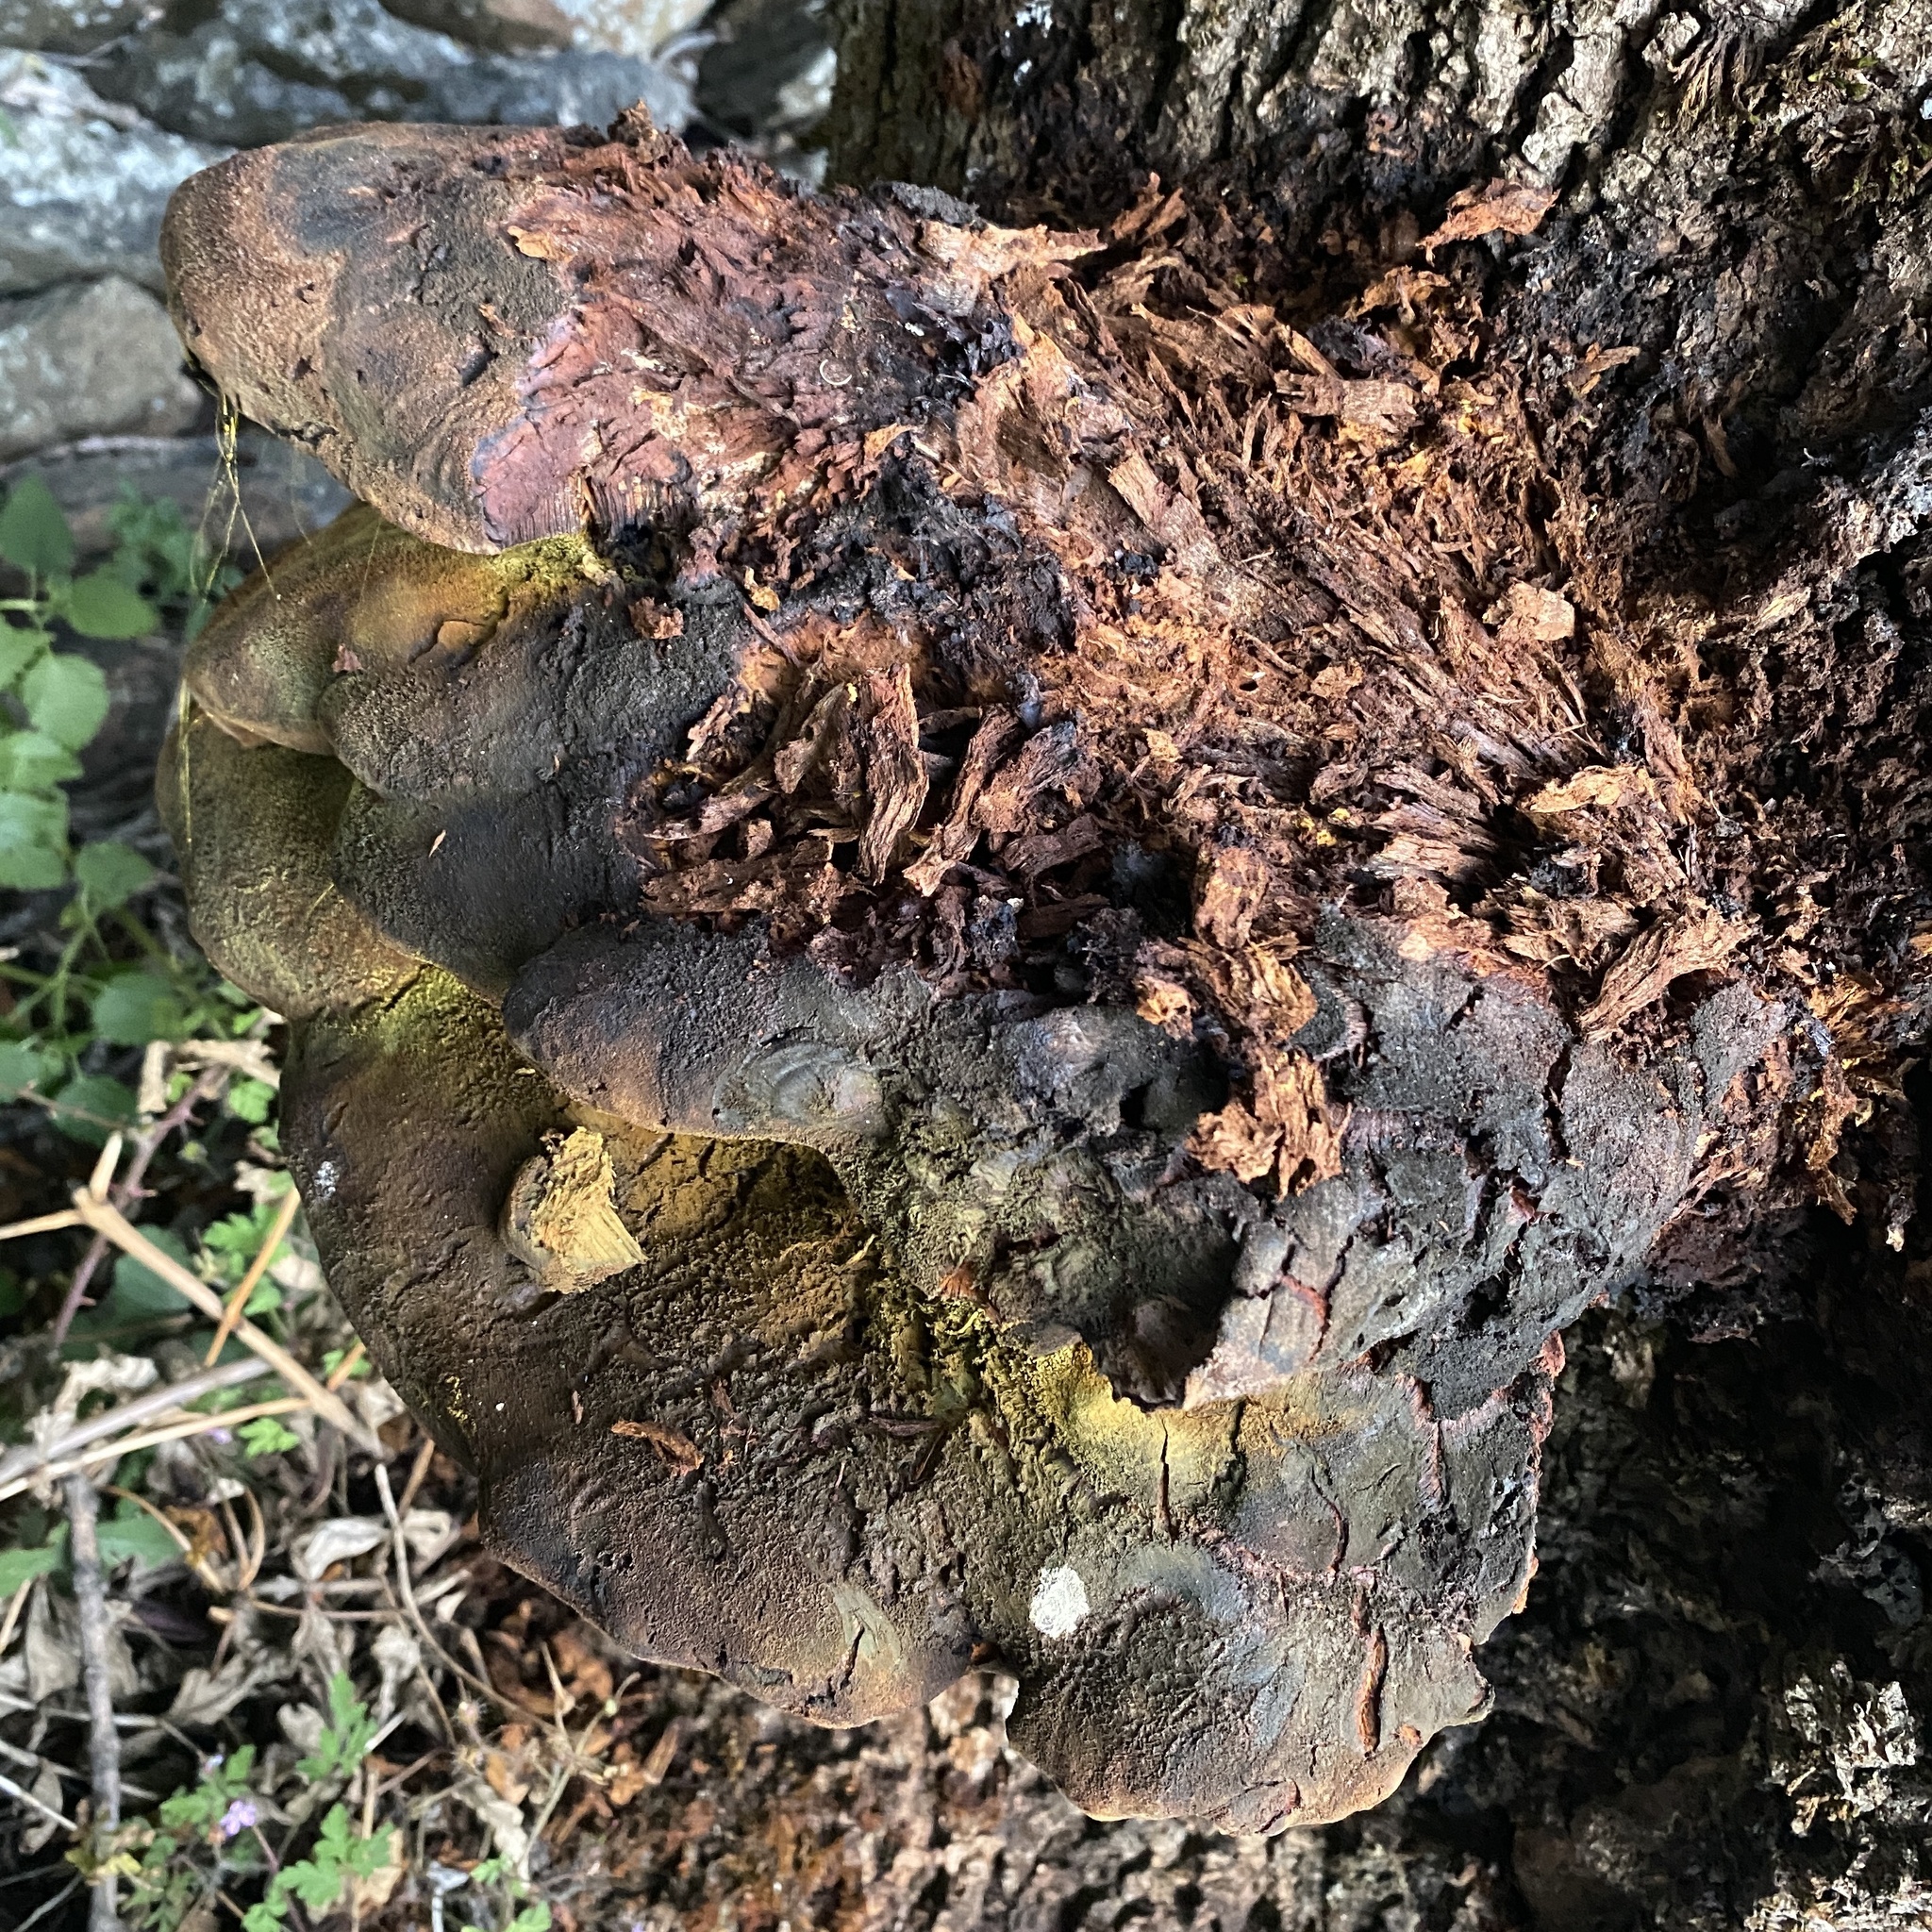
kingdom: Fungi
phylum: Basidiomycota
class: Agaricomycetes
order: Hymenochaetales
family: Hymenochaetaceae
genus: Inonotus
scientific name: Inonotus hispidus
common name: Shaggy bracket
